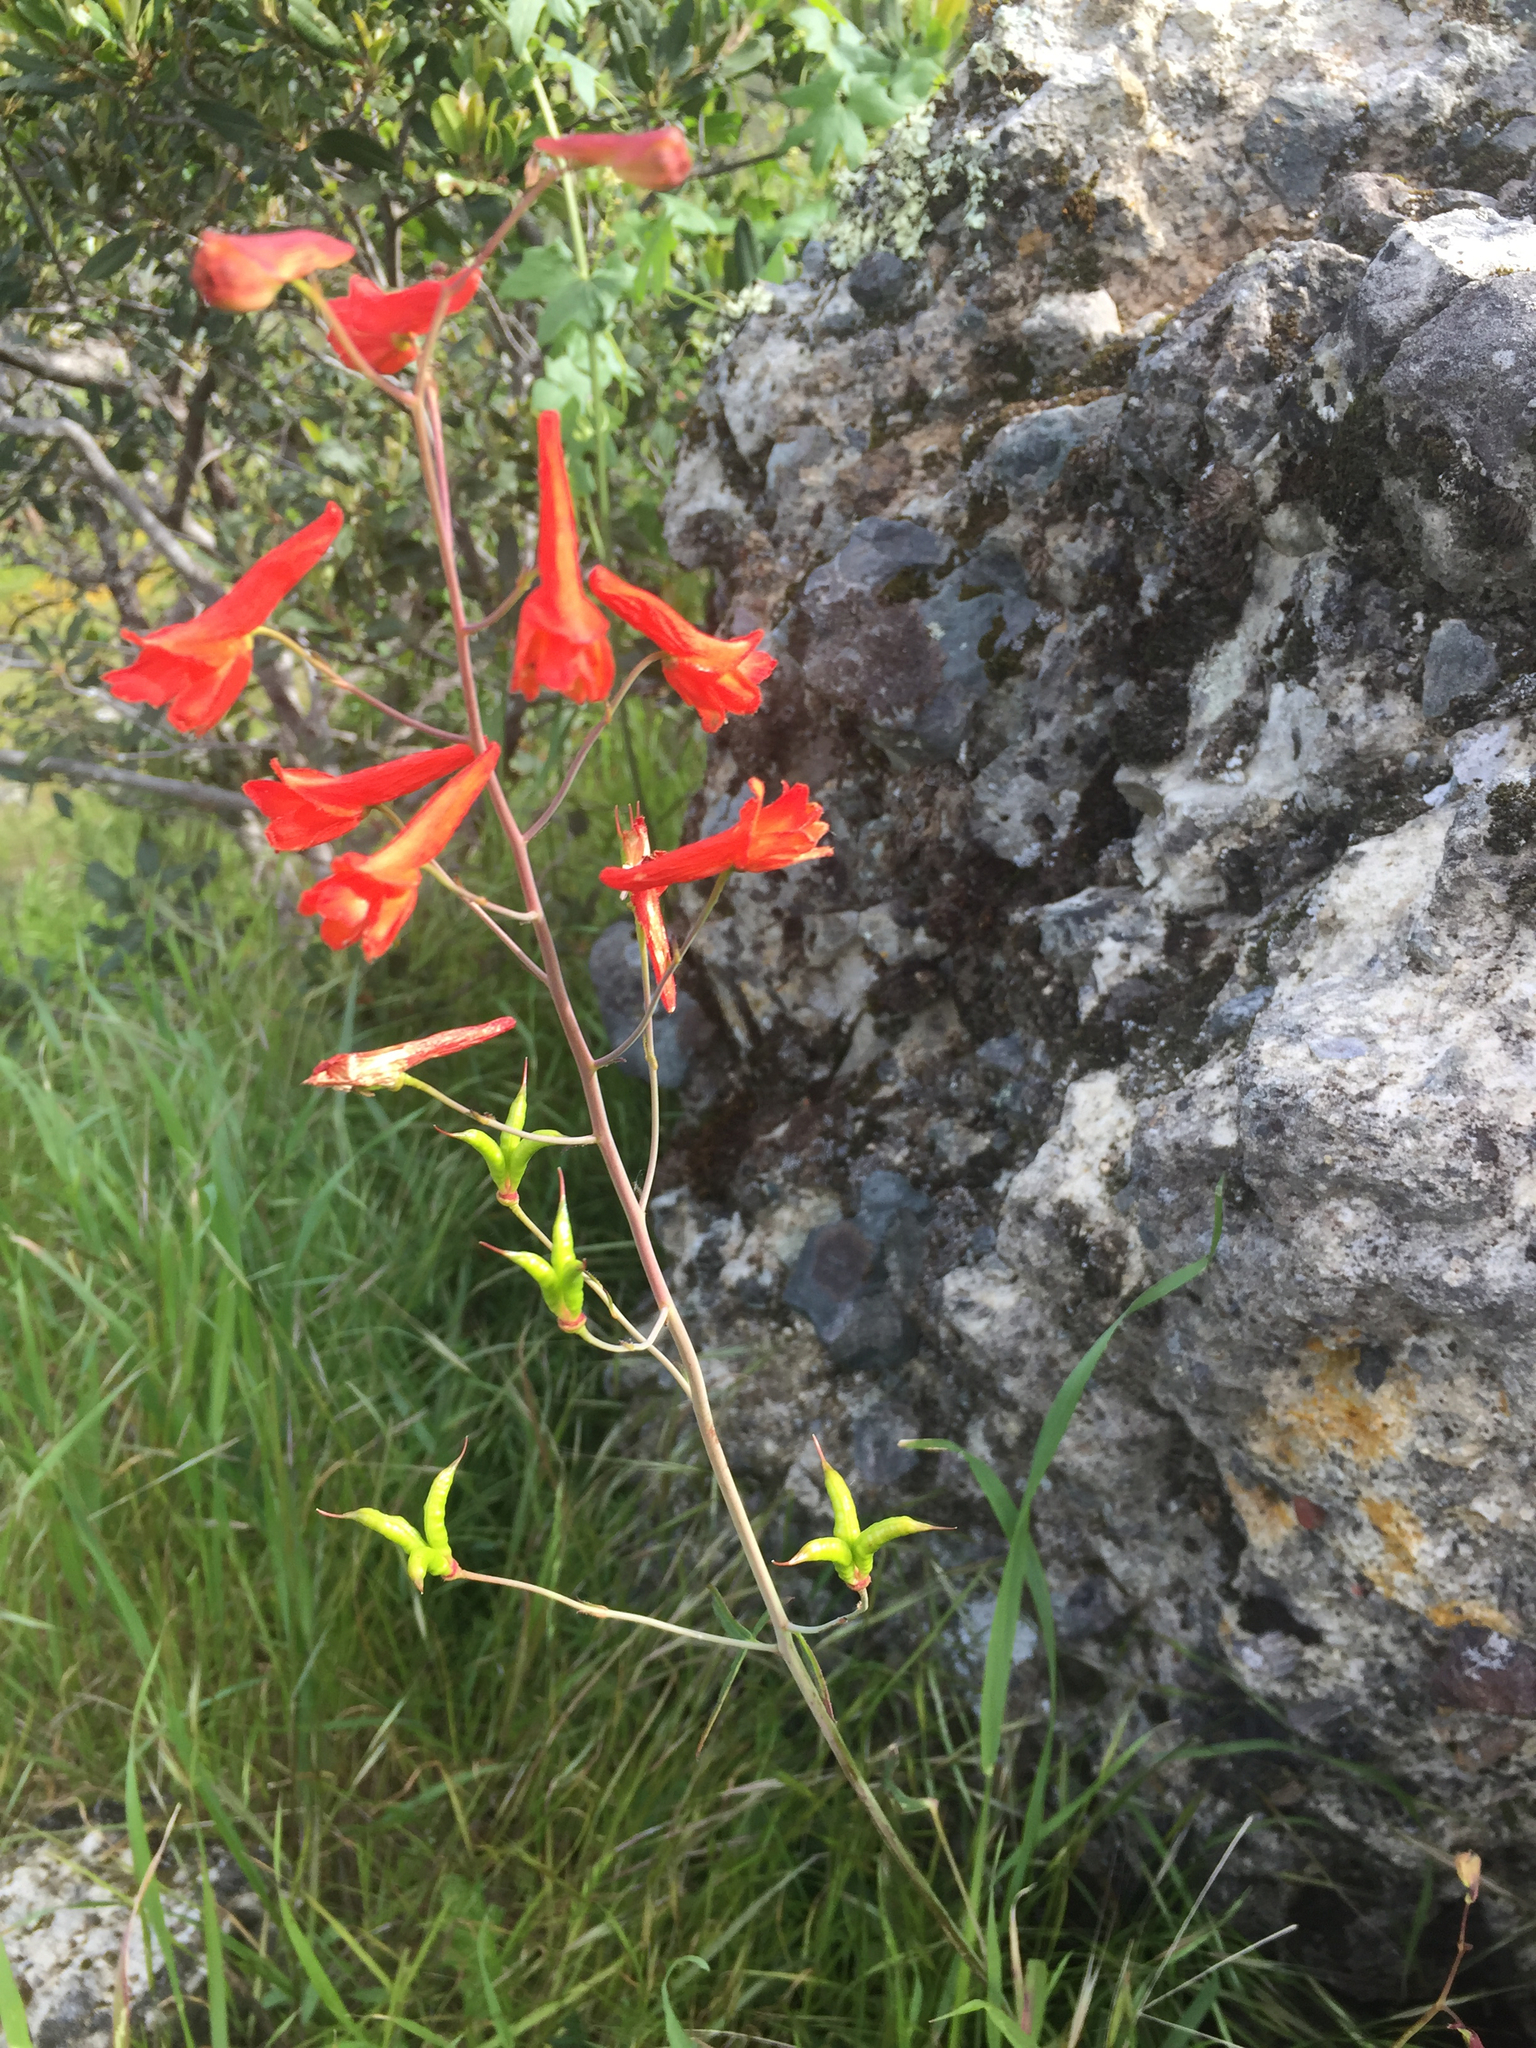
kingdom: Plantae
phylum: Tracheophyta
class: Magnoliopsida
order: Ranunculales
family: Ranunculaceae
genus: Delphinium
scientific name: Delphinium nudicaule
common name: Red larkspur
